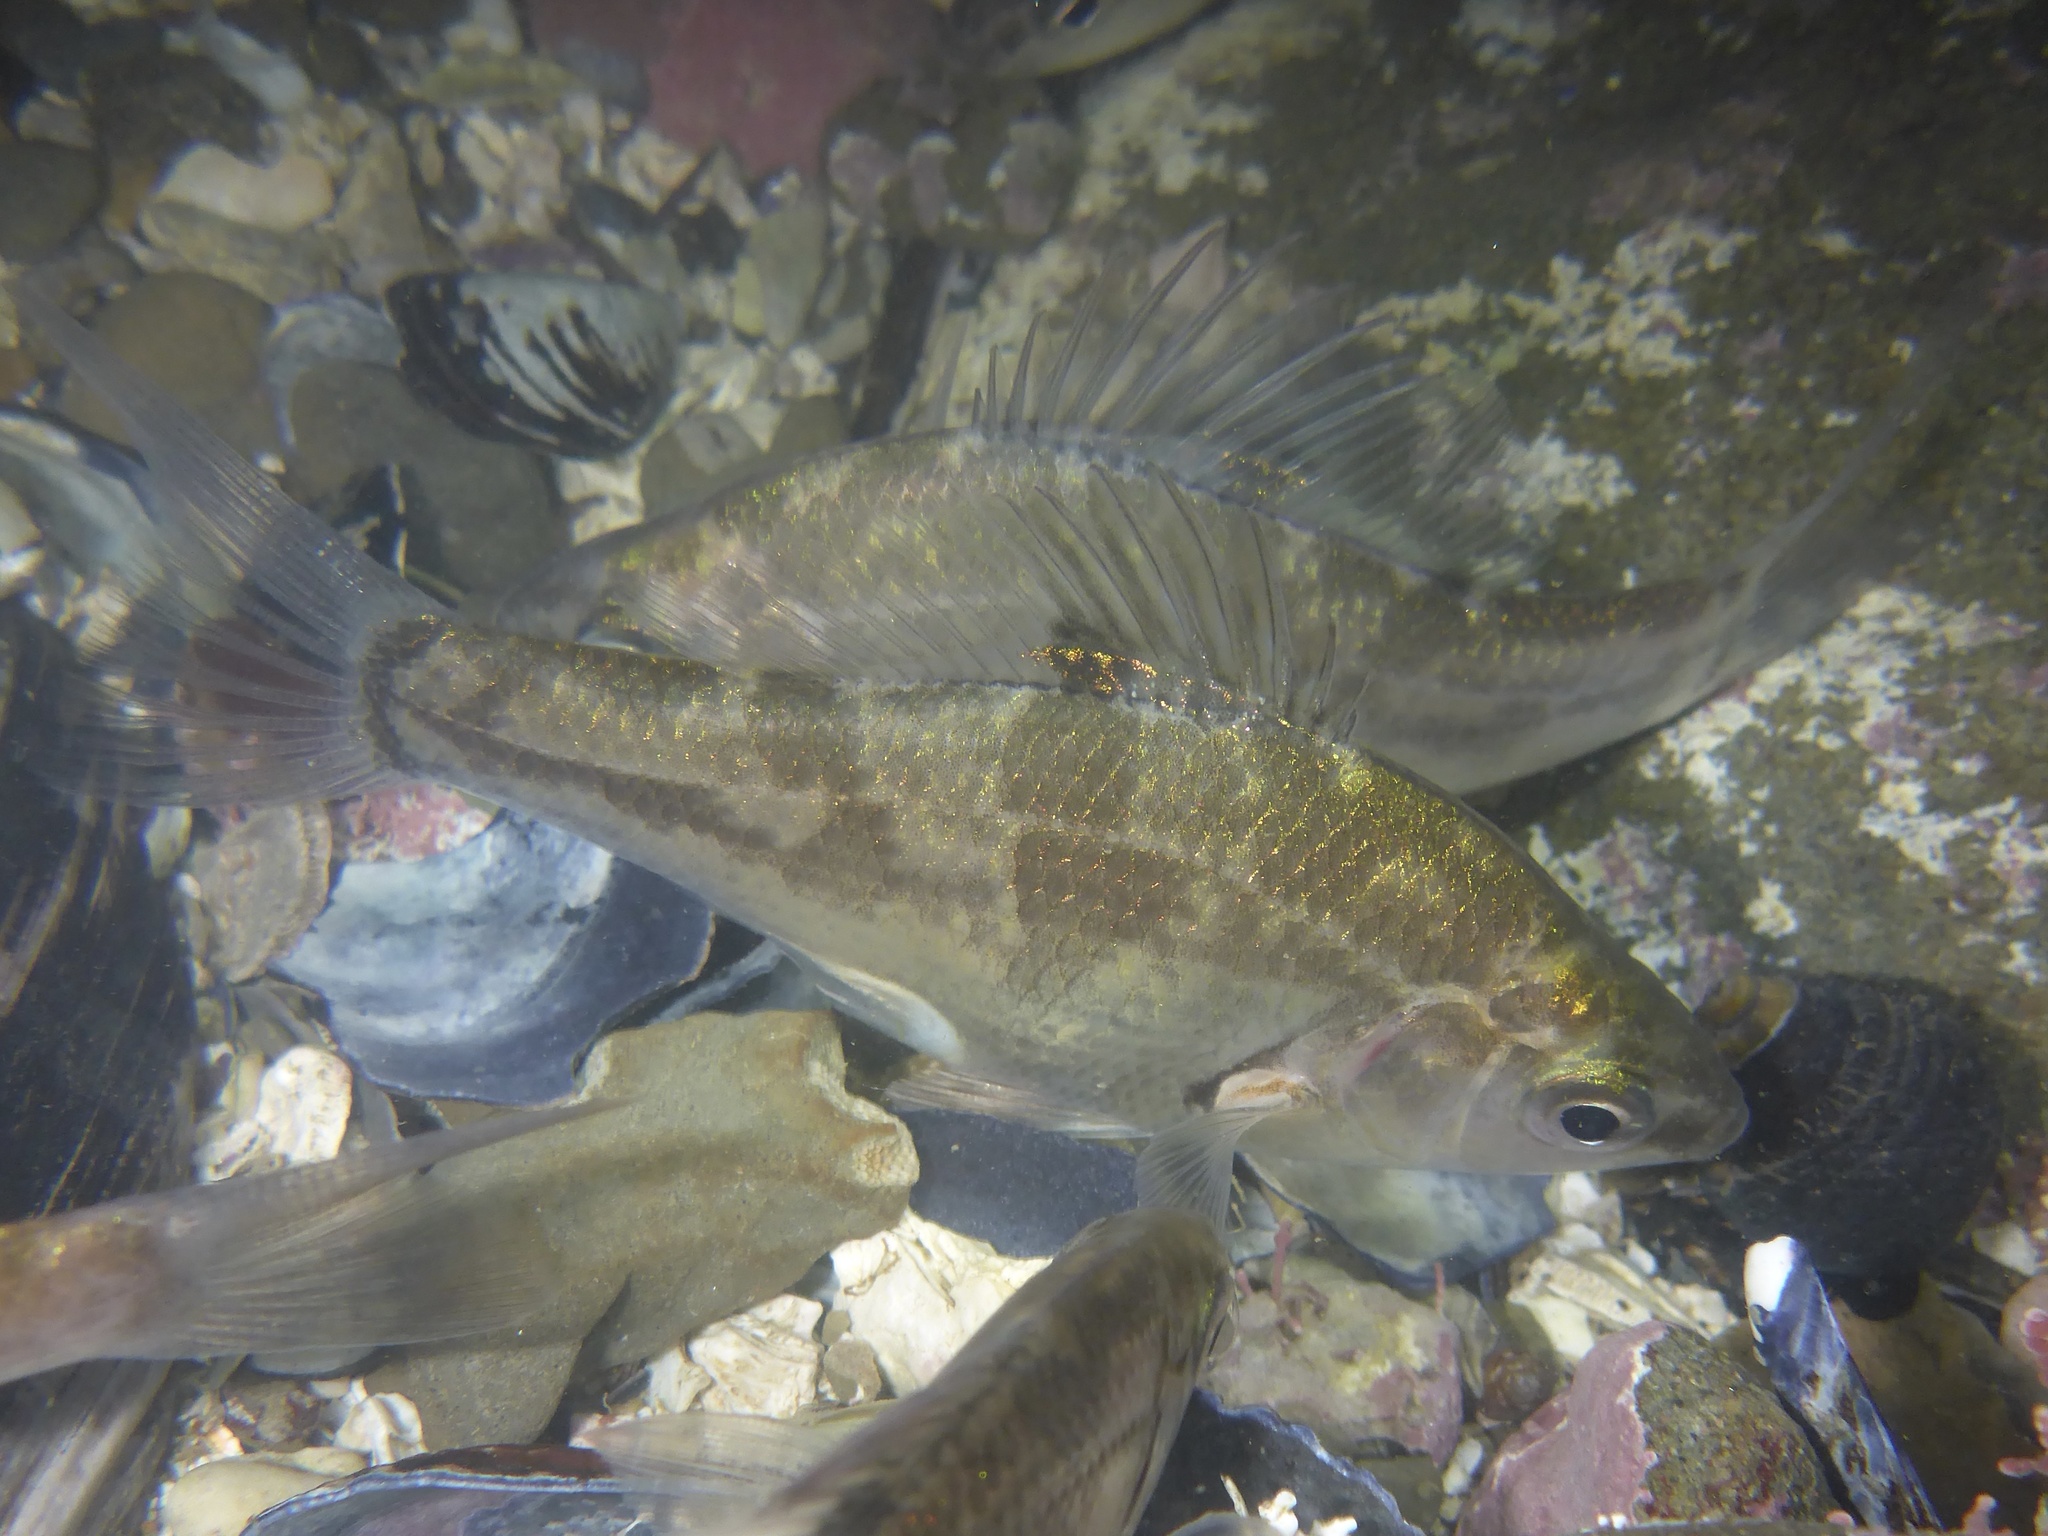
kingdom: Animalia
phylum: Chordata
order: Perciformes
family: Embiotocidae
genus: Micrometrus
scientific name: Micrometrus minimus
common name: Dwarf perch
